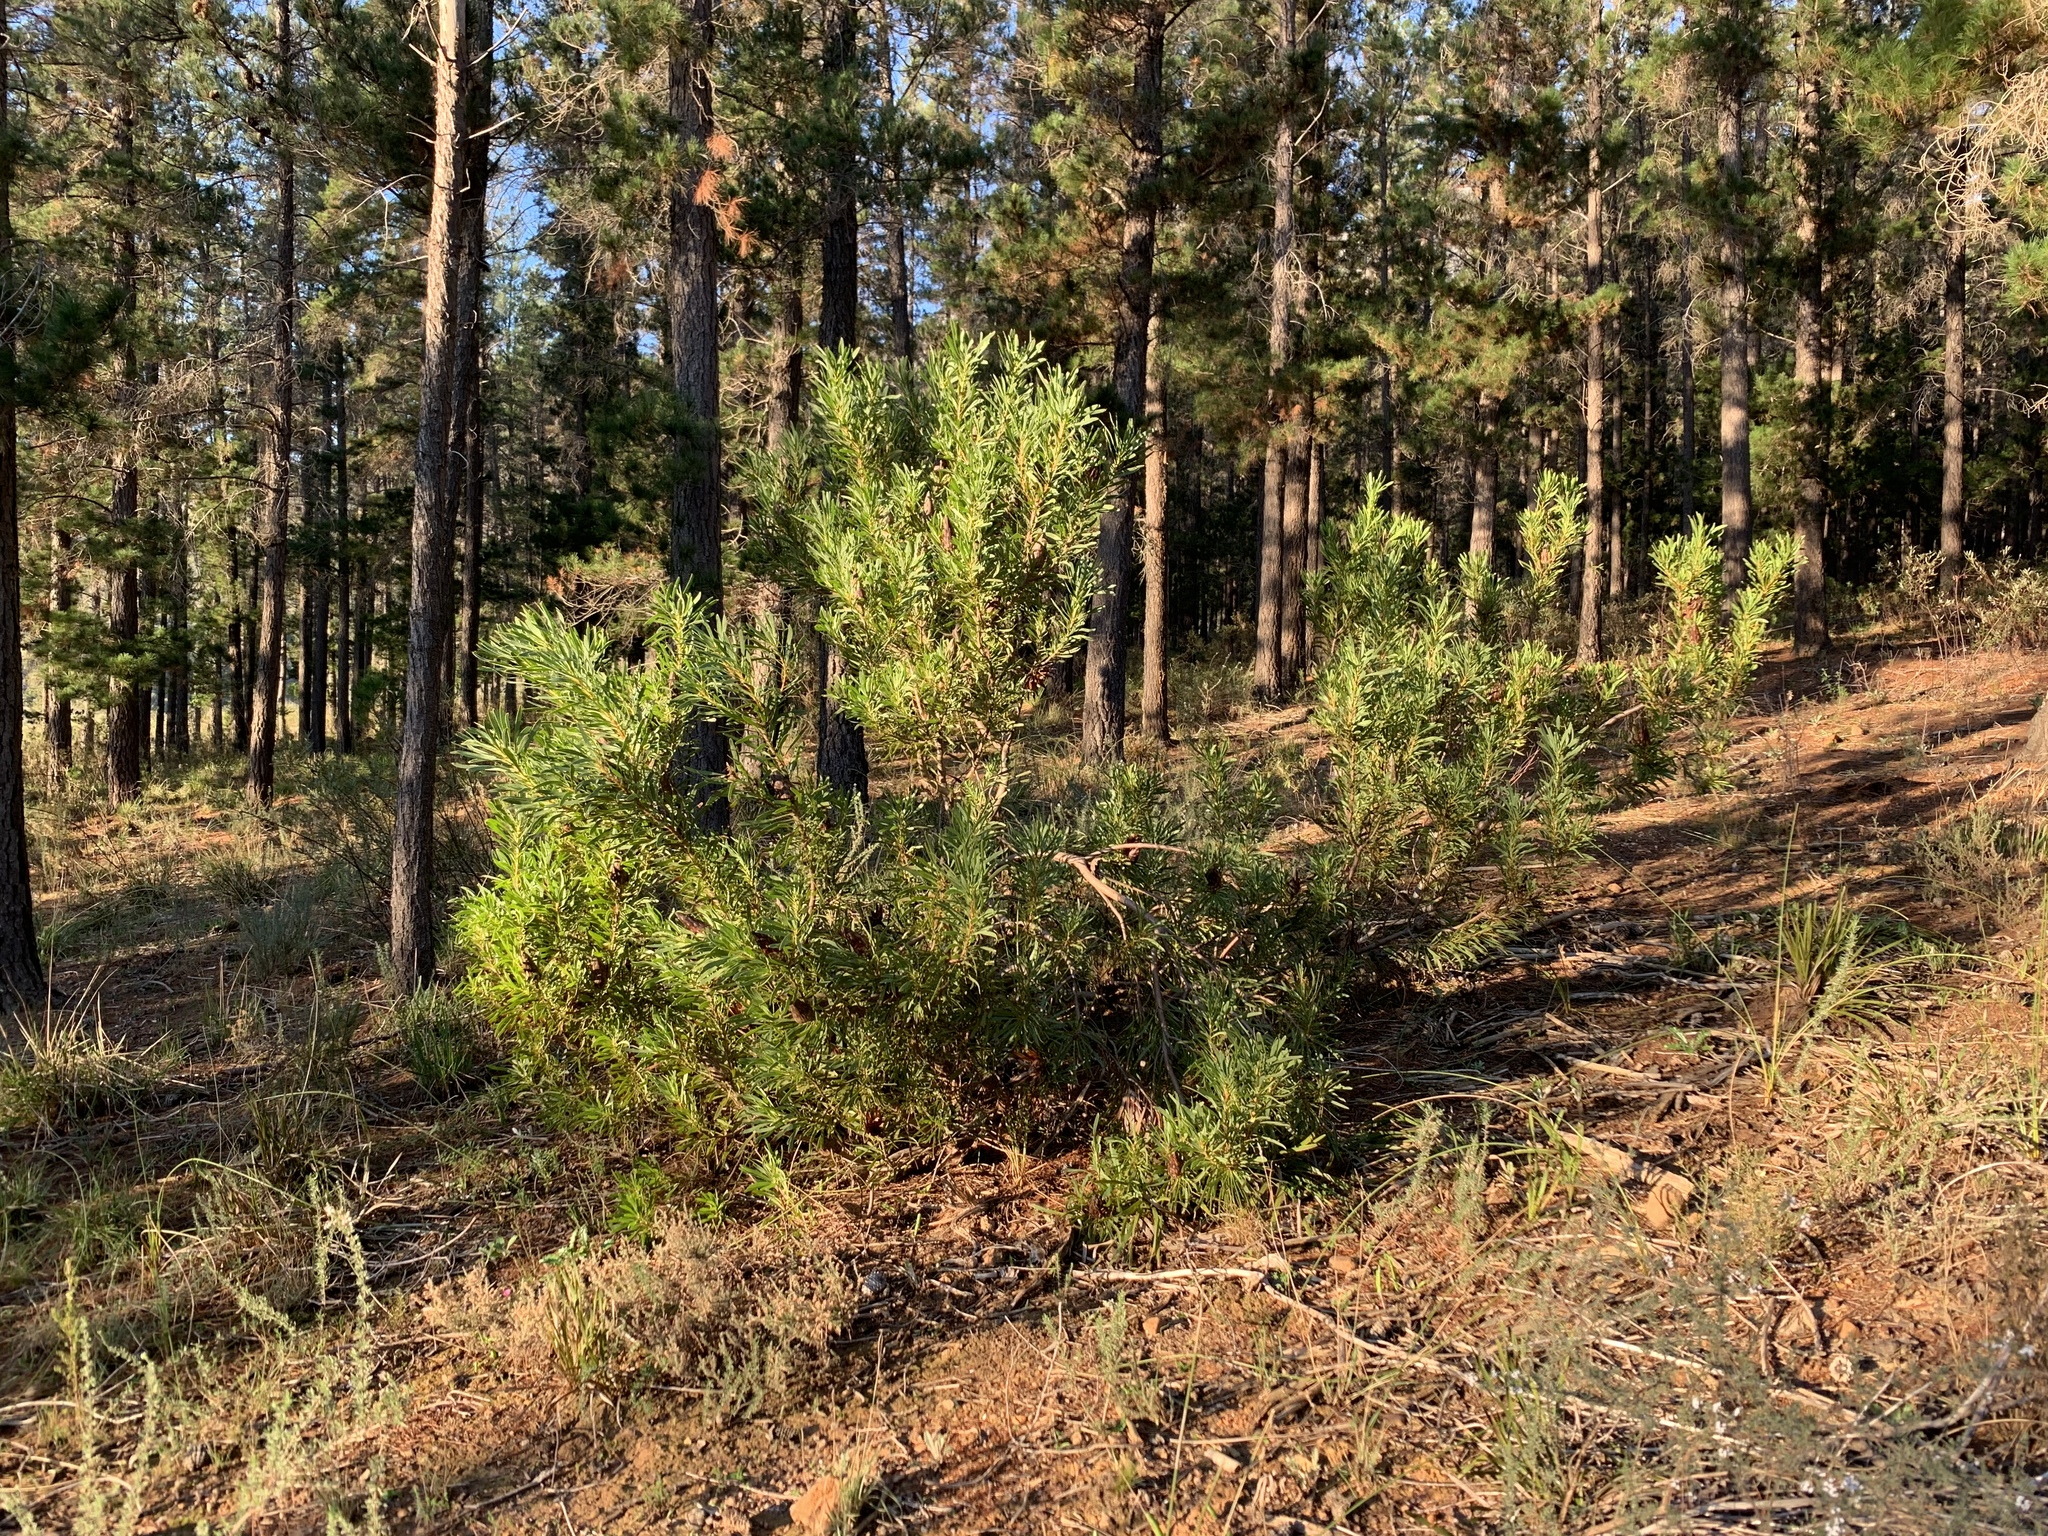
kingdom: Plantae
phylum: Tracheophyta
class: Magnoliopsida
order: Proteales
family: Proteaceae
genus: Protea
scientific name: Protea repens
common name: Sugarbush
